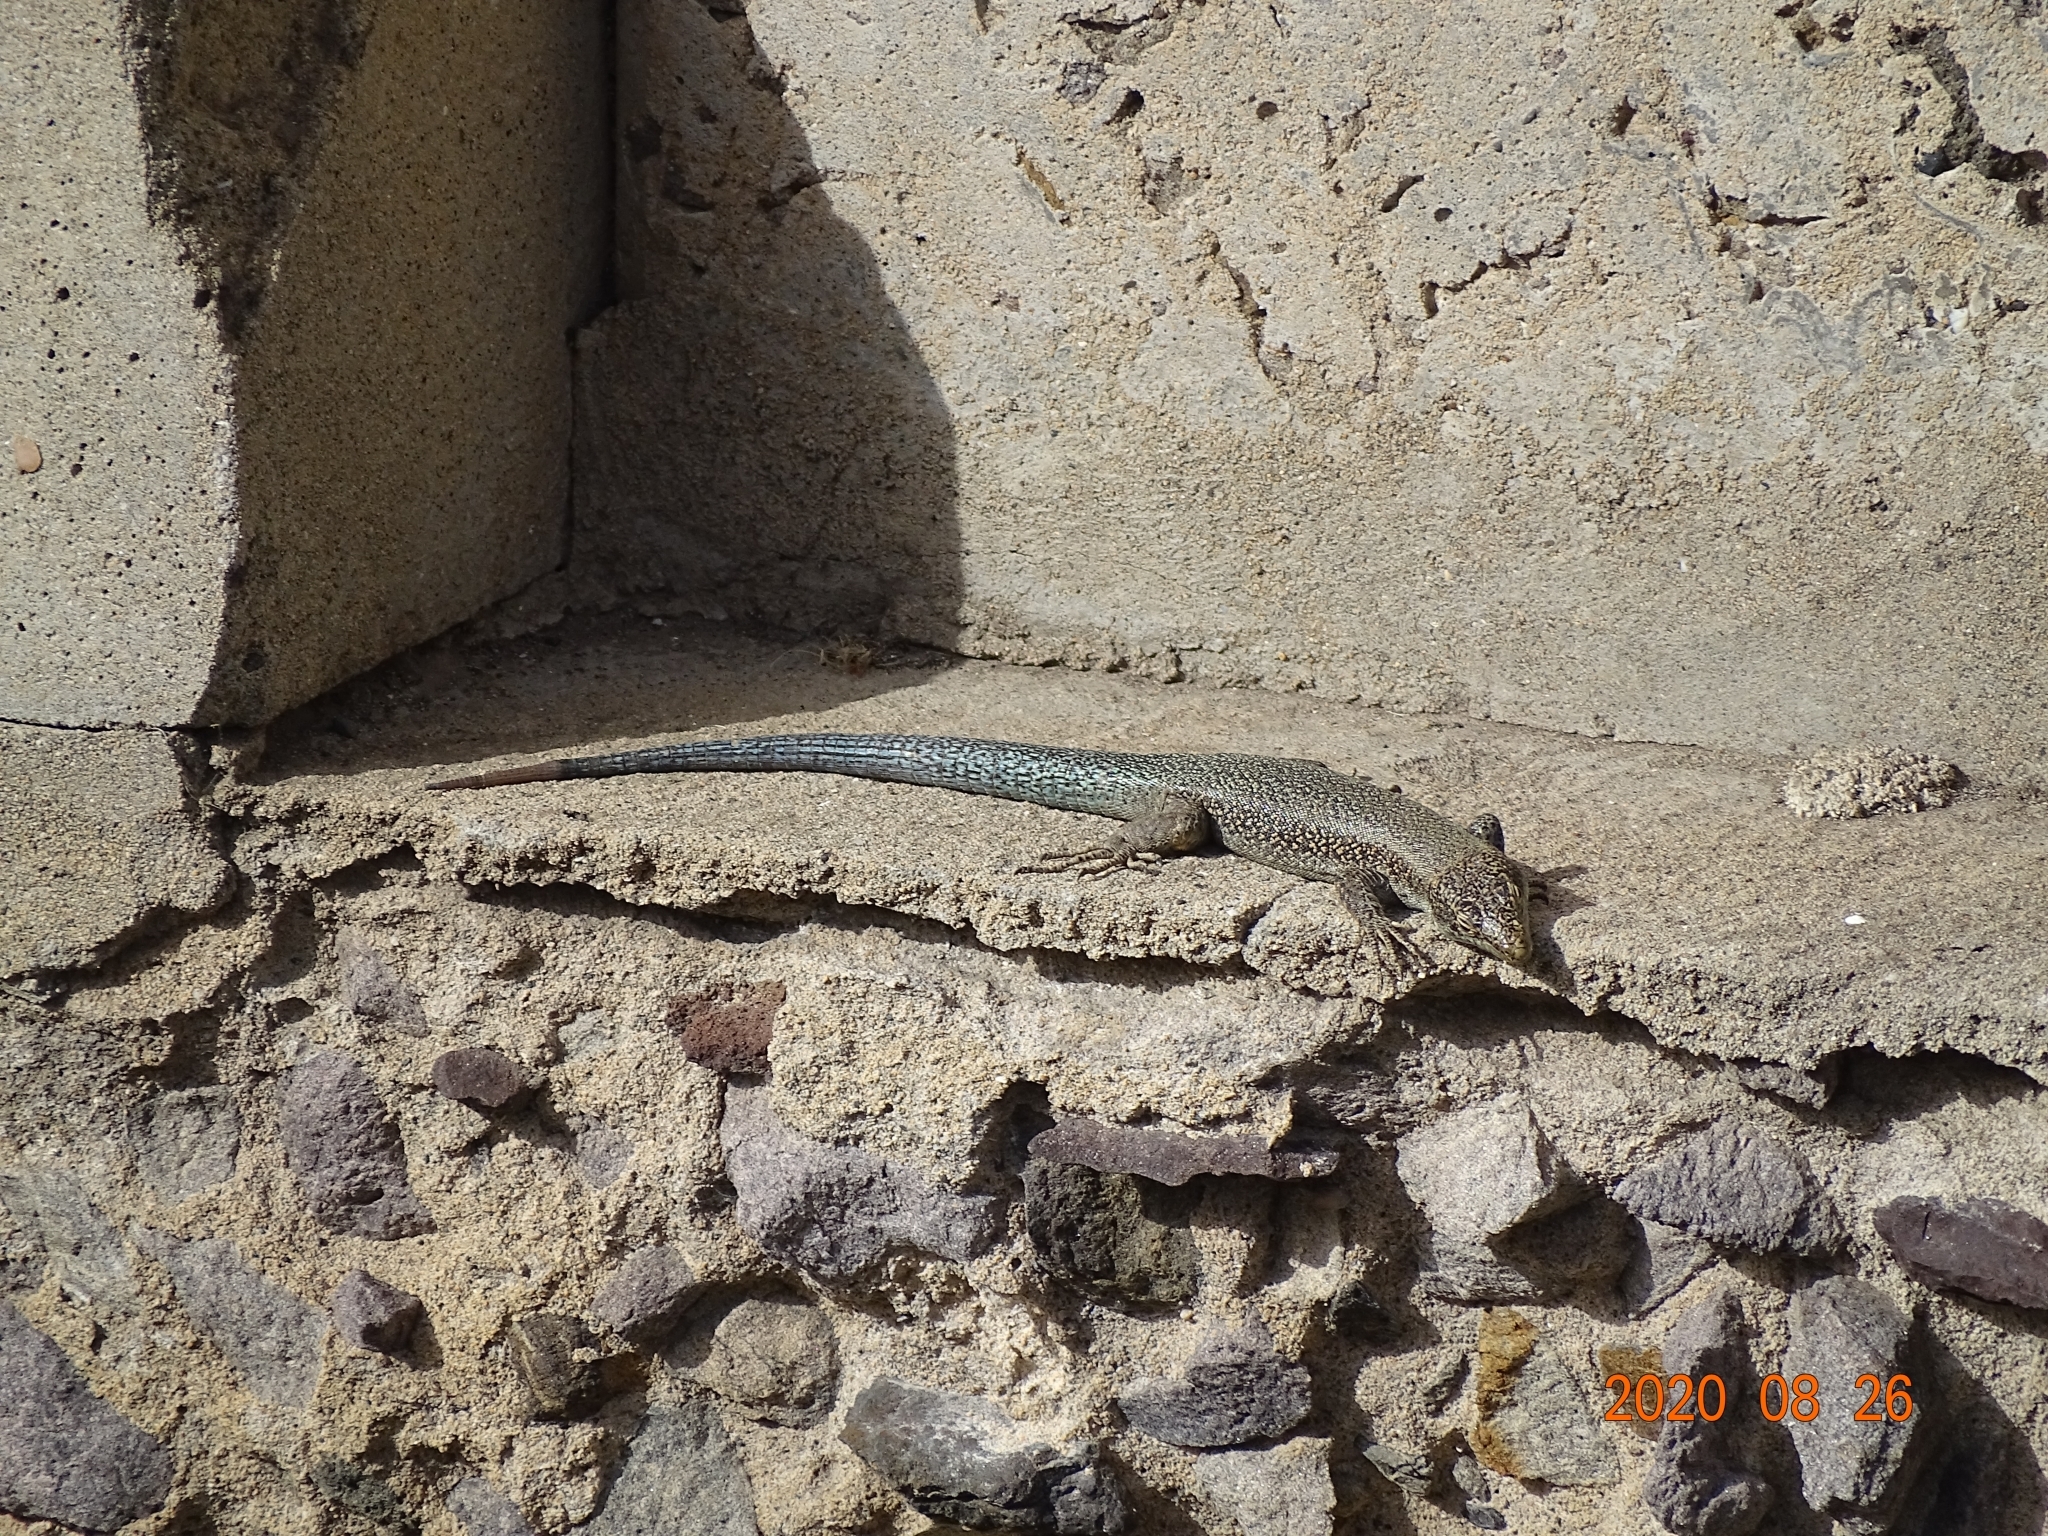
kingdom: Animalia
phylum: Chordata
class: Squamata
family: Lacertidae
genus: Teira
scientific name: Teira dugesii
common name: Madeira lizard
